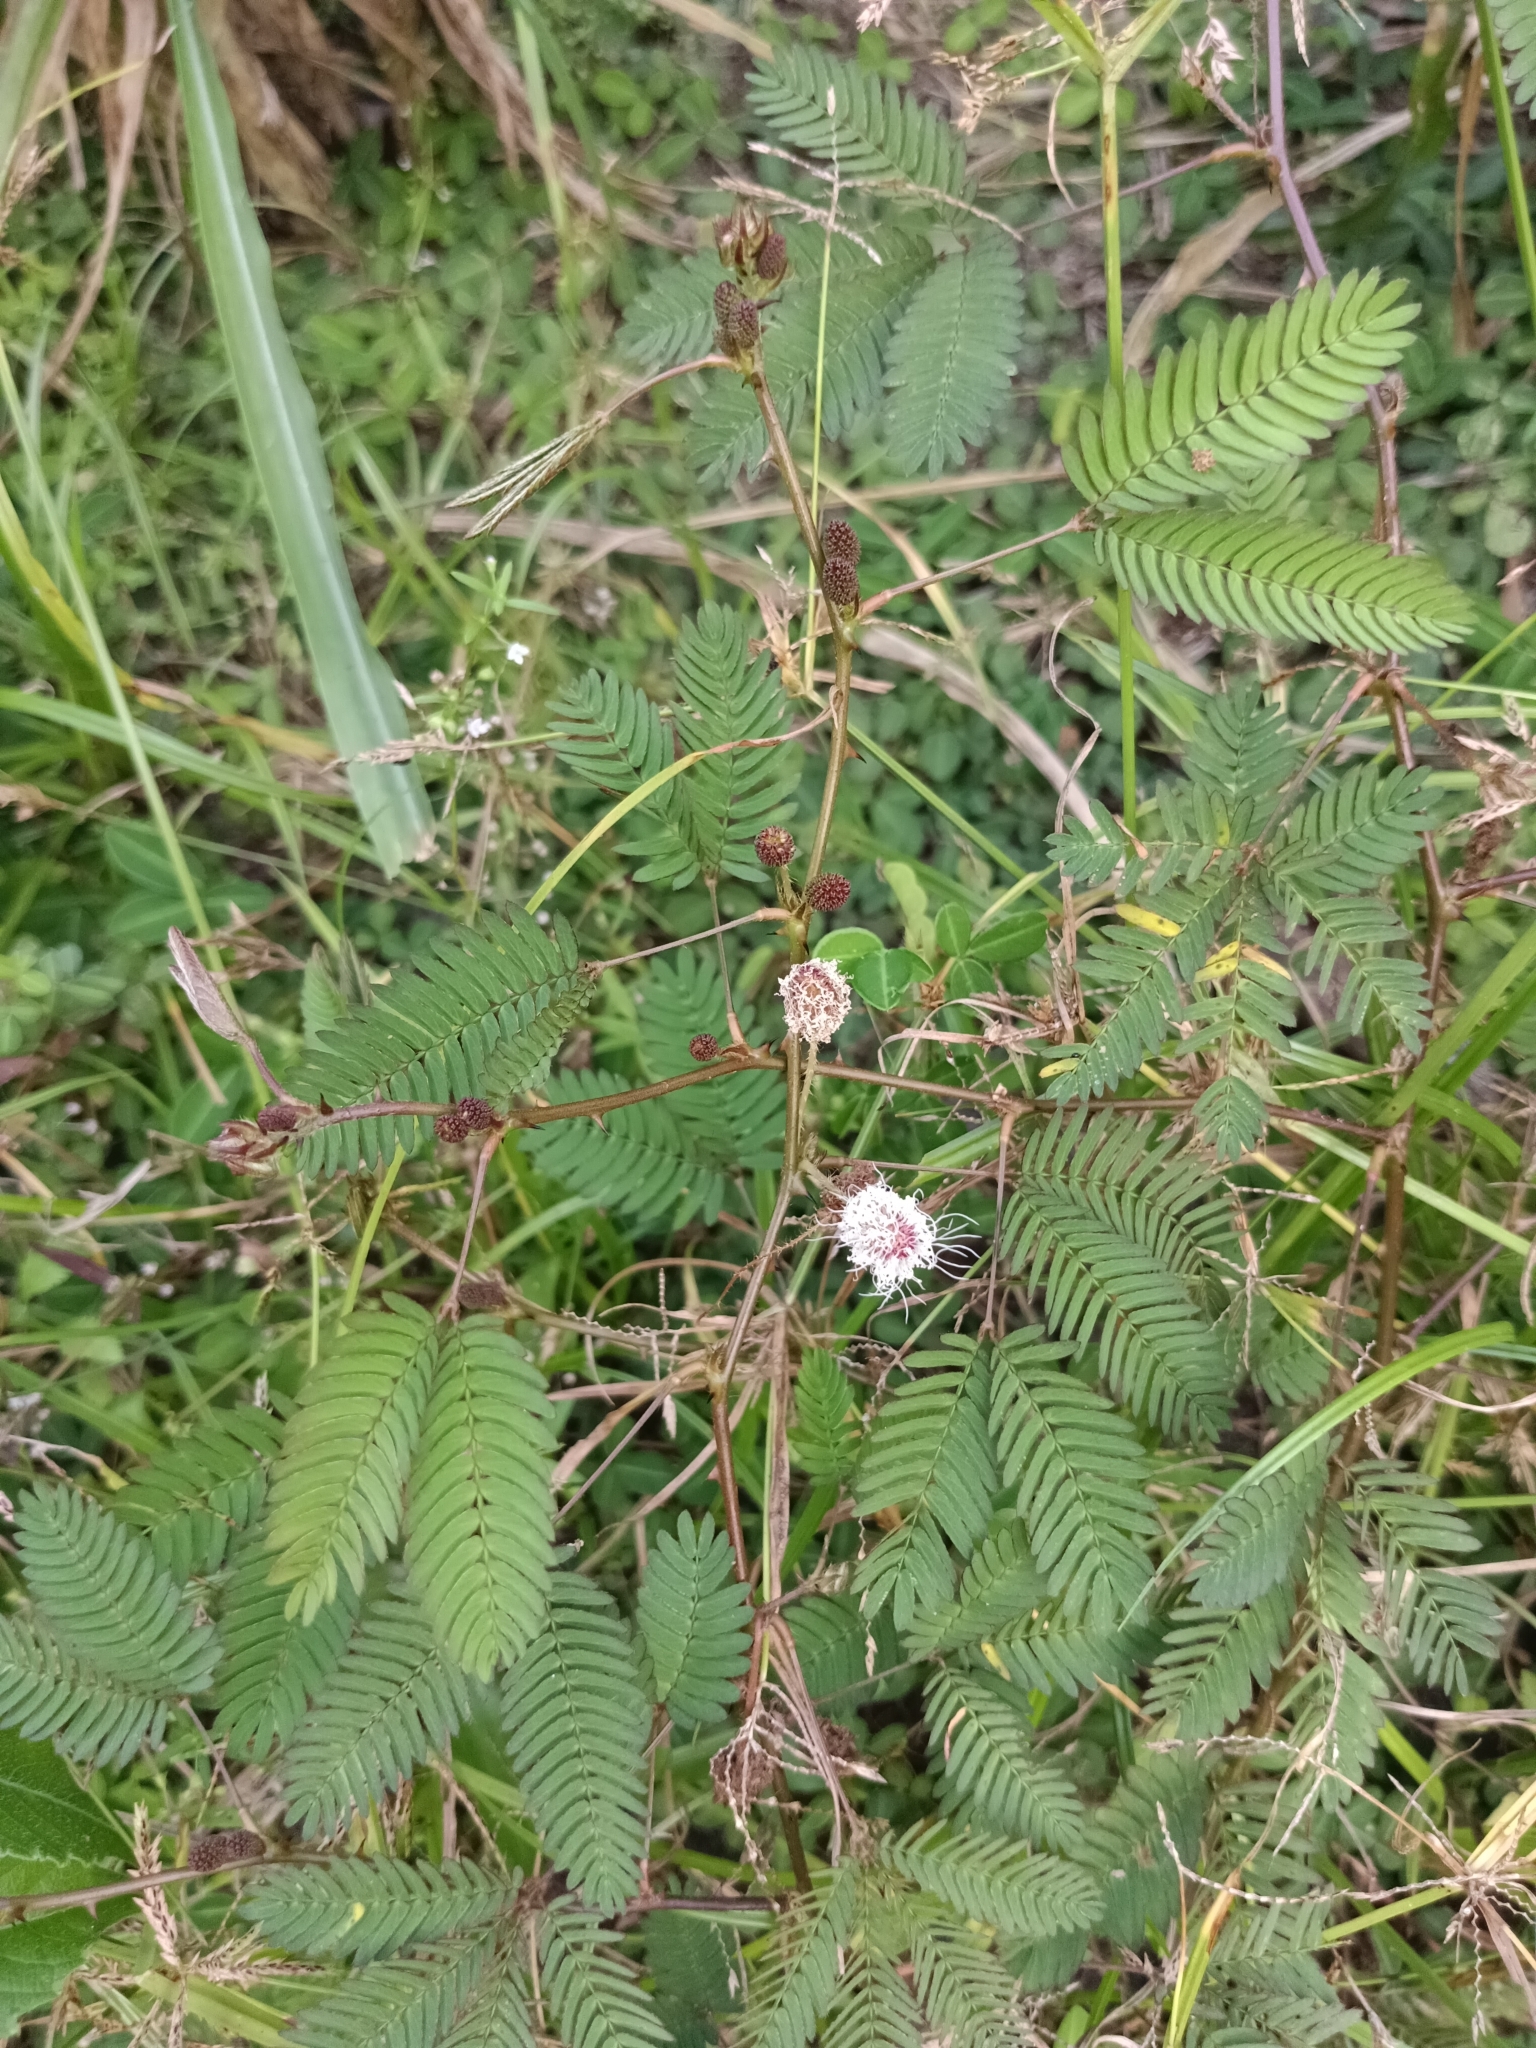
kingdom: Plantae
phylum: Tracheophyta
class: Magnoliopsida
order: Fabales
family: Fabaceae
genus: Mimosa
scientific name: Mimosa pudica
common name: Sensitive plant
